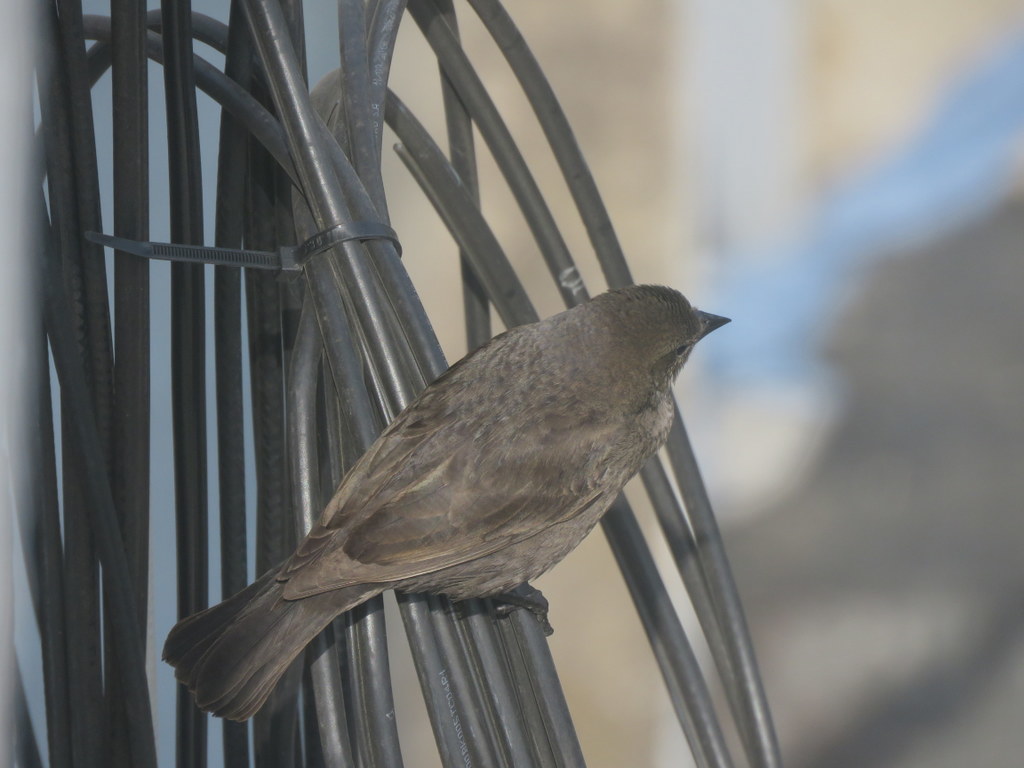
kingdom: Animalia
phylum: Chordata
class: Aves
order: Passeriformes
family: Icteridae
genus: Molothrus
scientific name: Molothrus bonariensis
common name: Shiny cowbird
